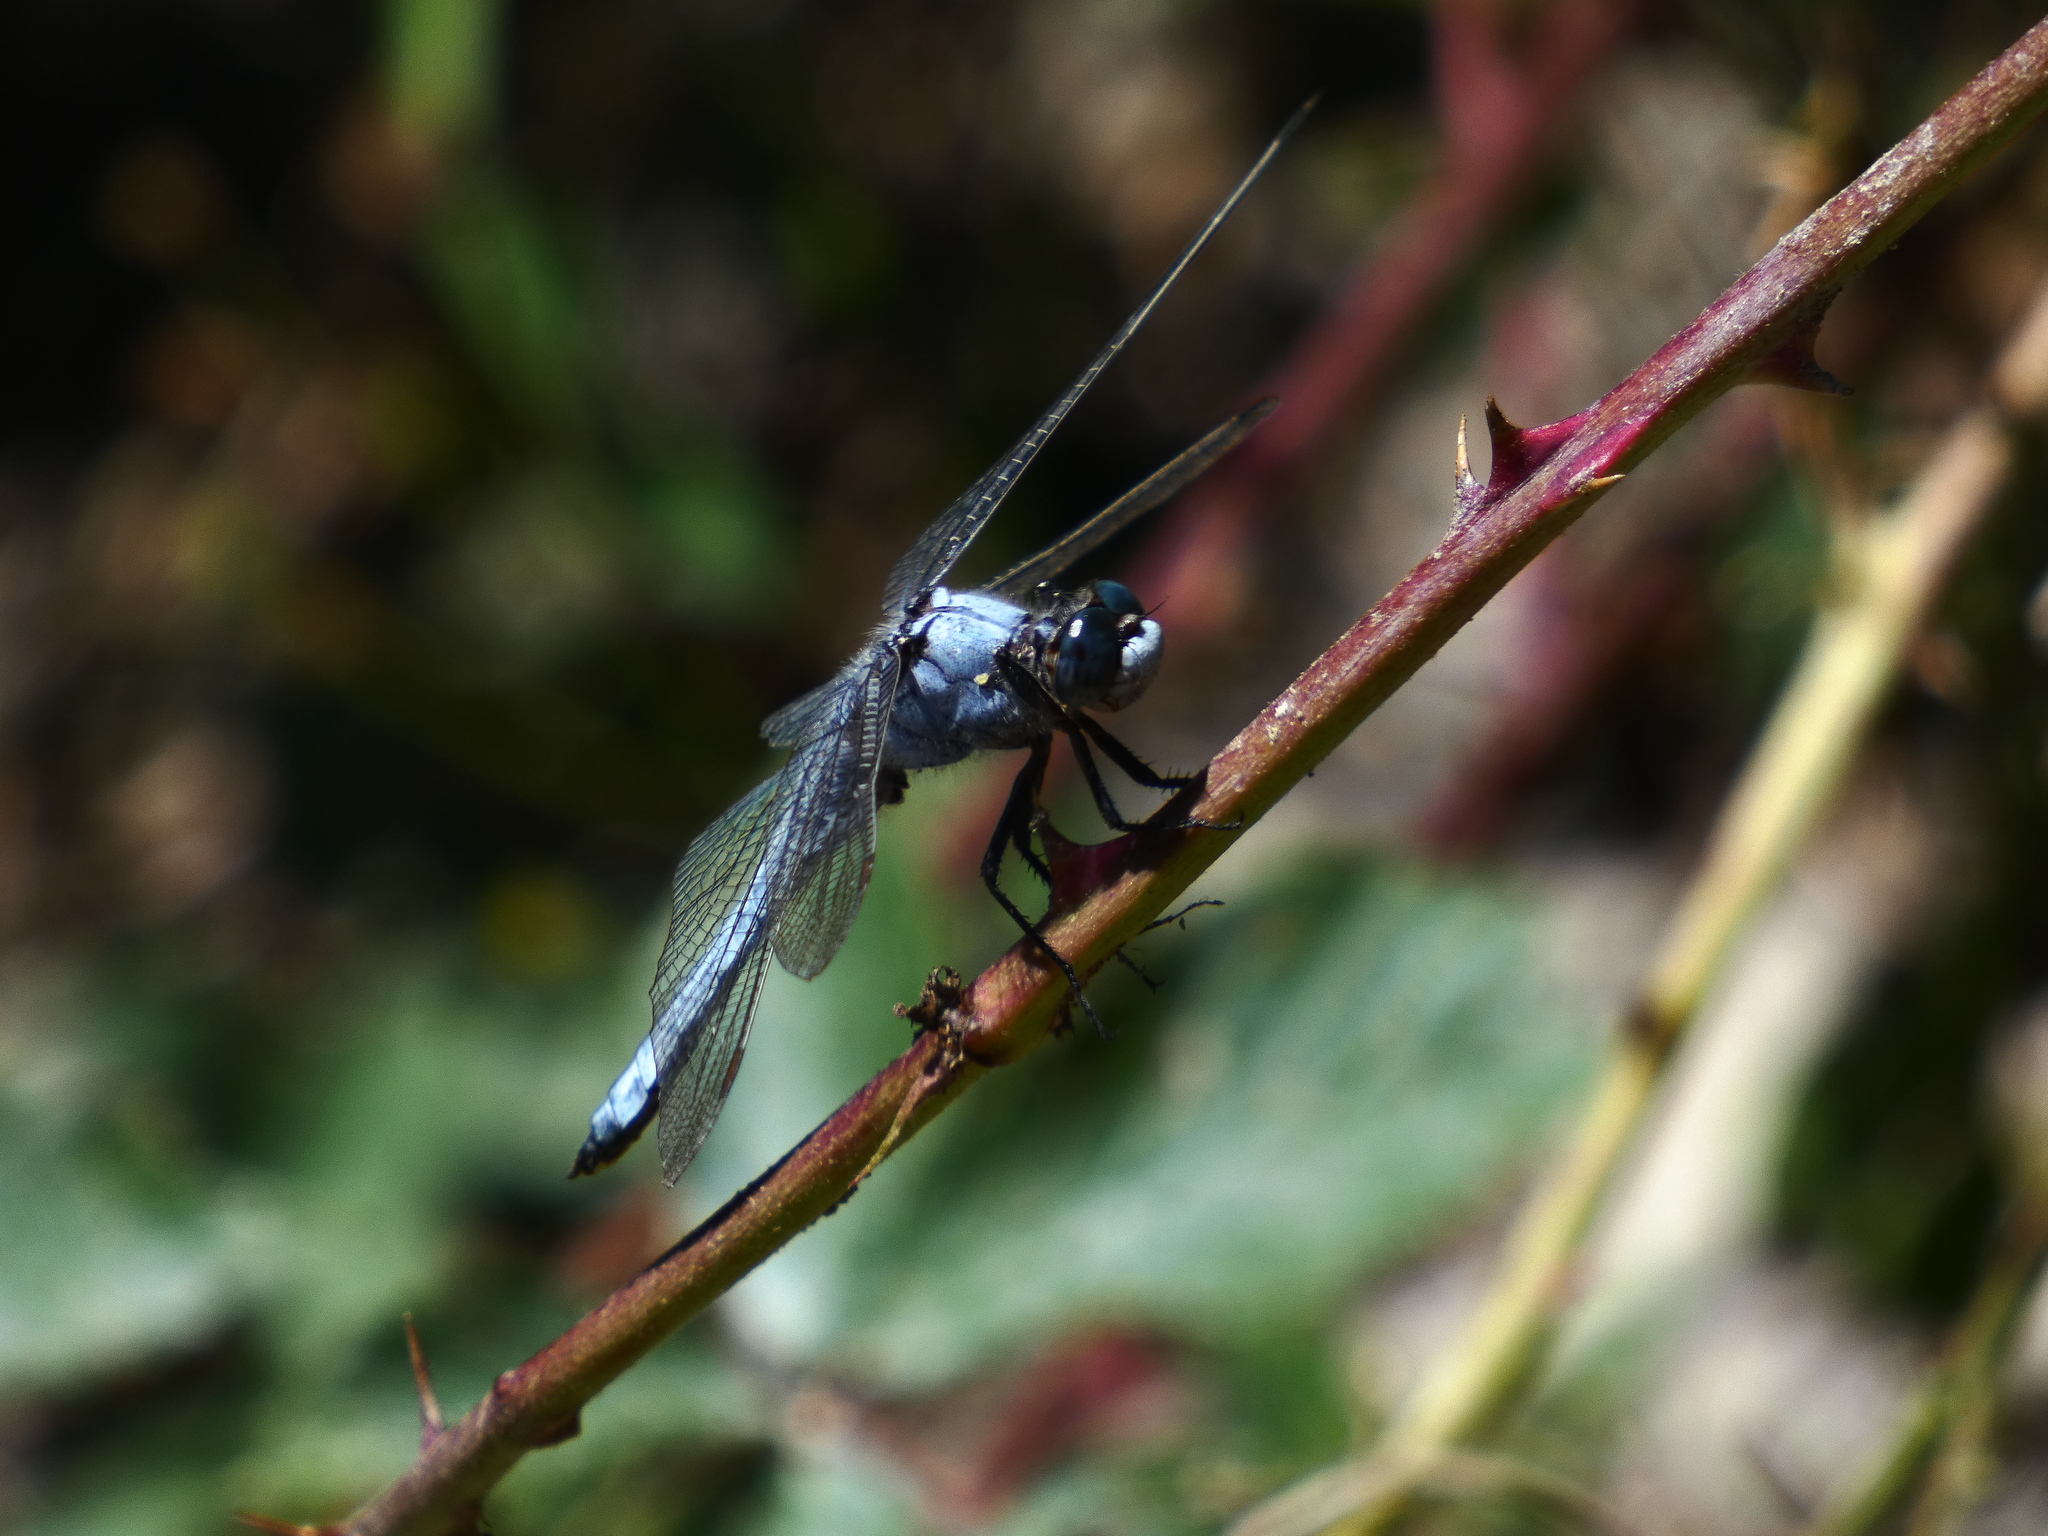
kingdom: Animalia
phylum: Arthropoda
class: Insecta
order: Odonata
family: Libellulidae
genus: Orthetrum
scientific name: Orthetrum brunneum
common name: Southern skimmer
